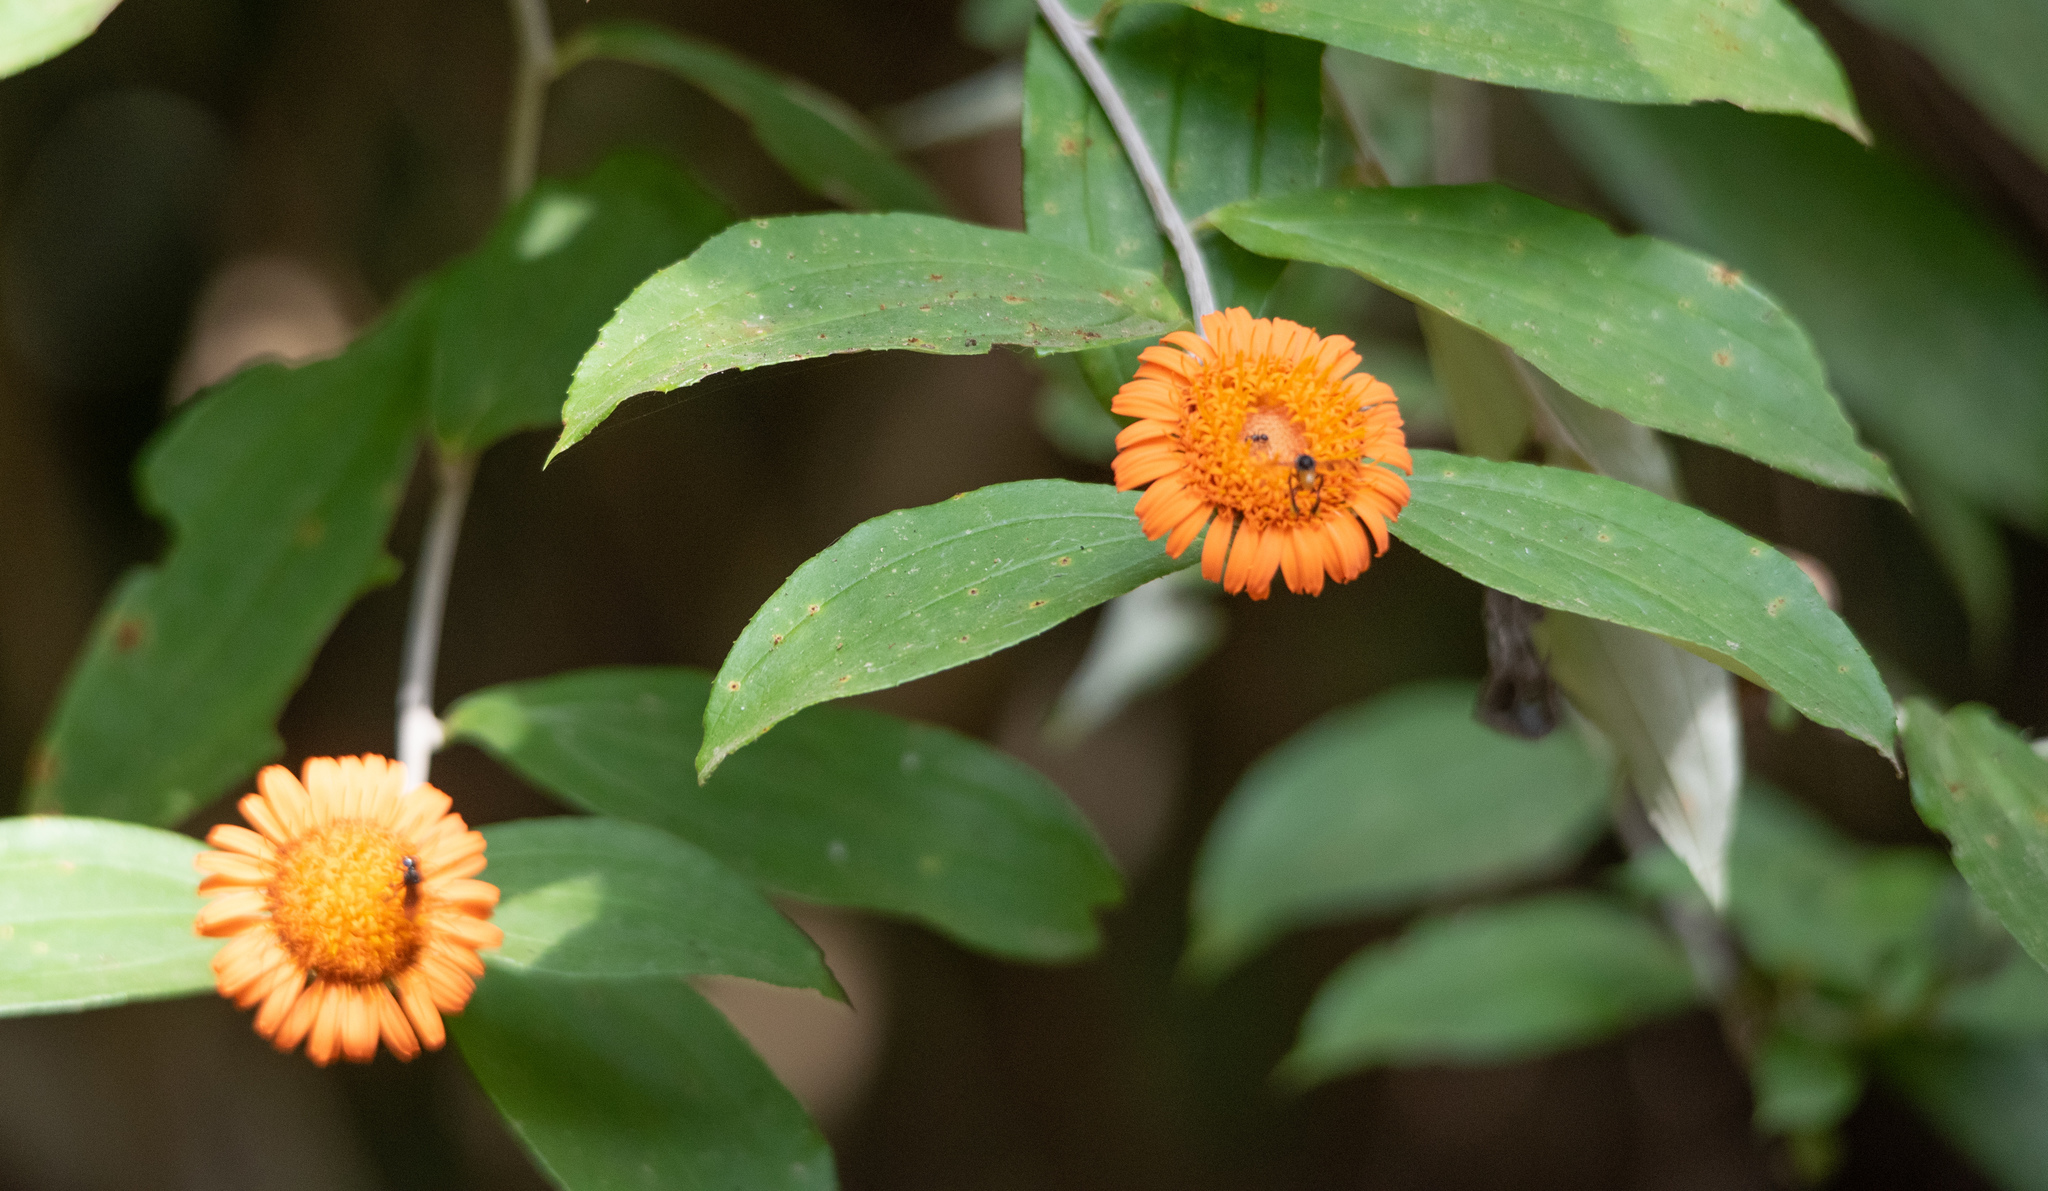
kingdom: Plantae
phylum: Tracheophyta
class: Magnoliopsida
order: Asterales
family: Asteraceae
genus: Lycoseris
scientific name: Lycoseris triplinervia
